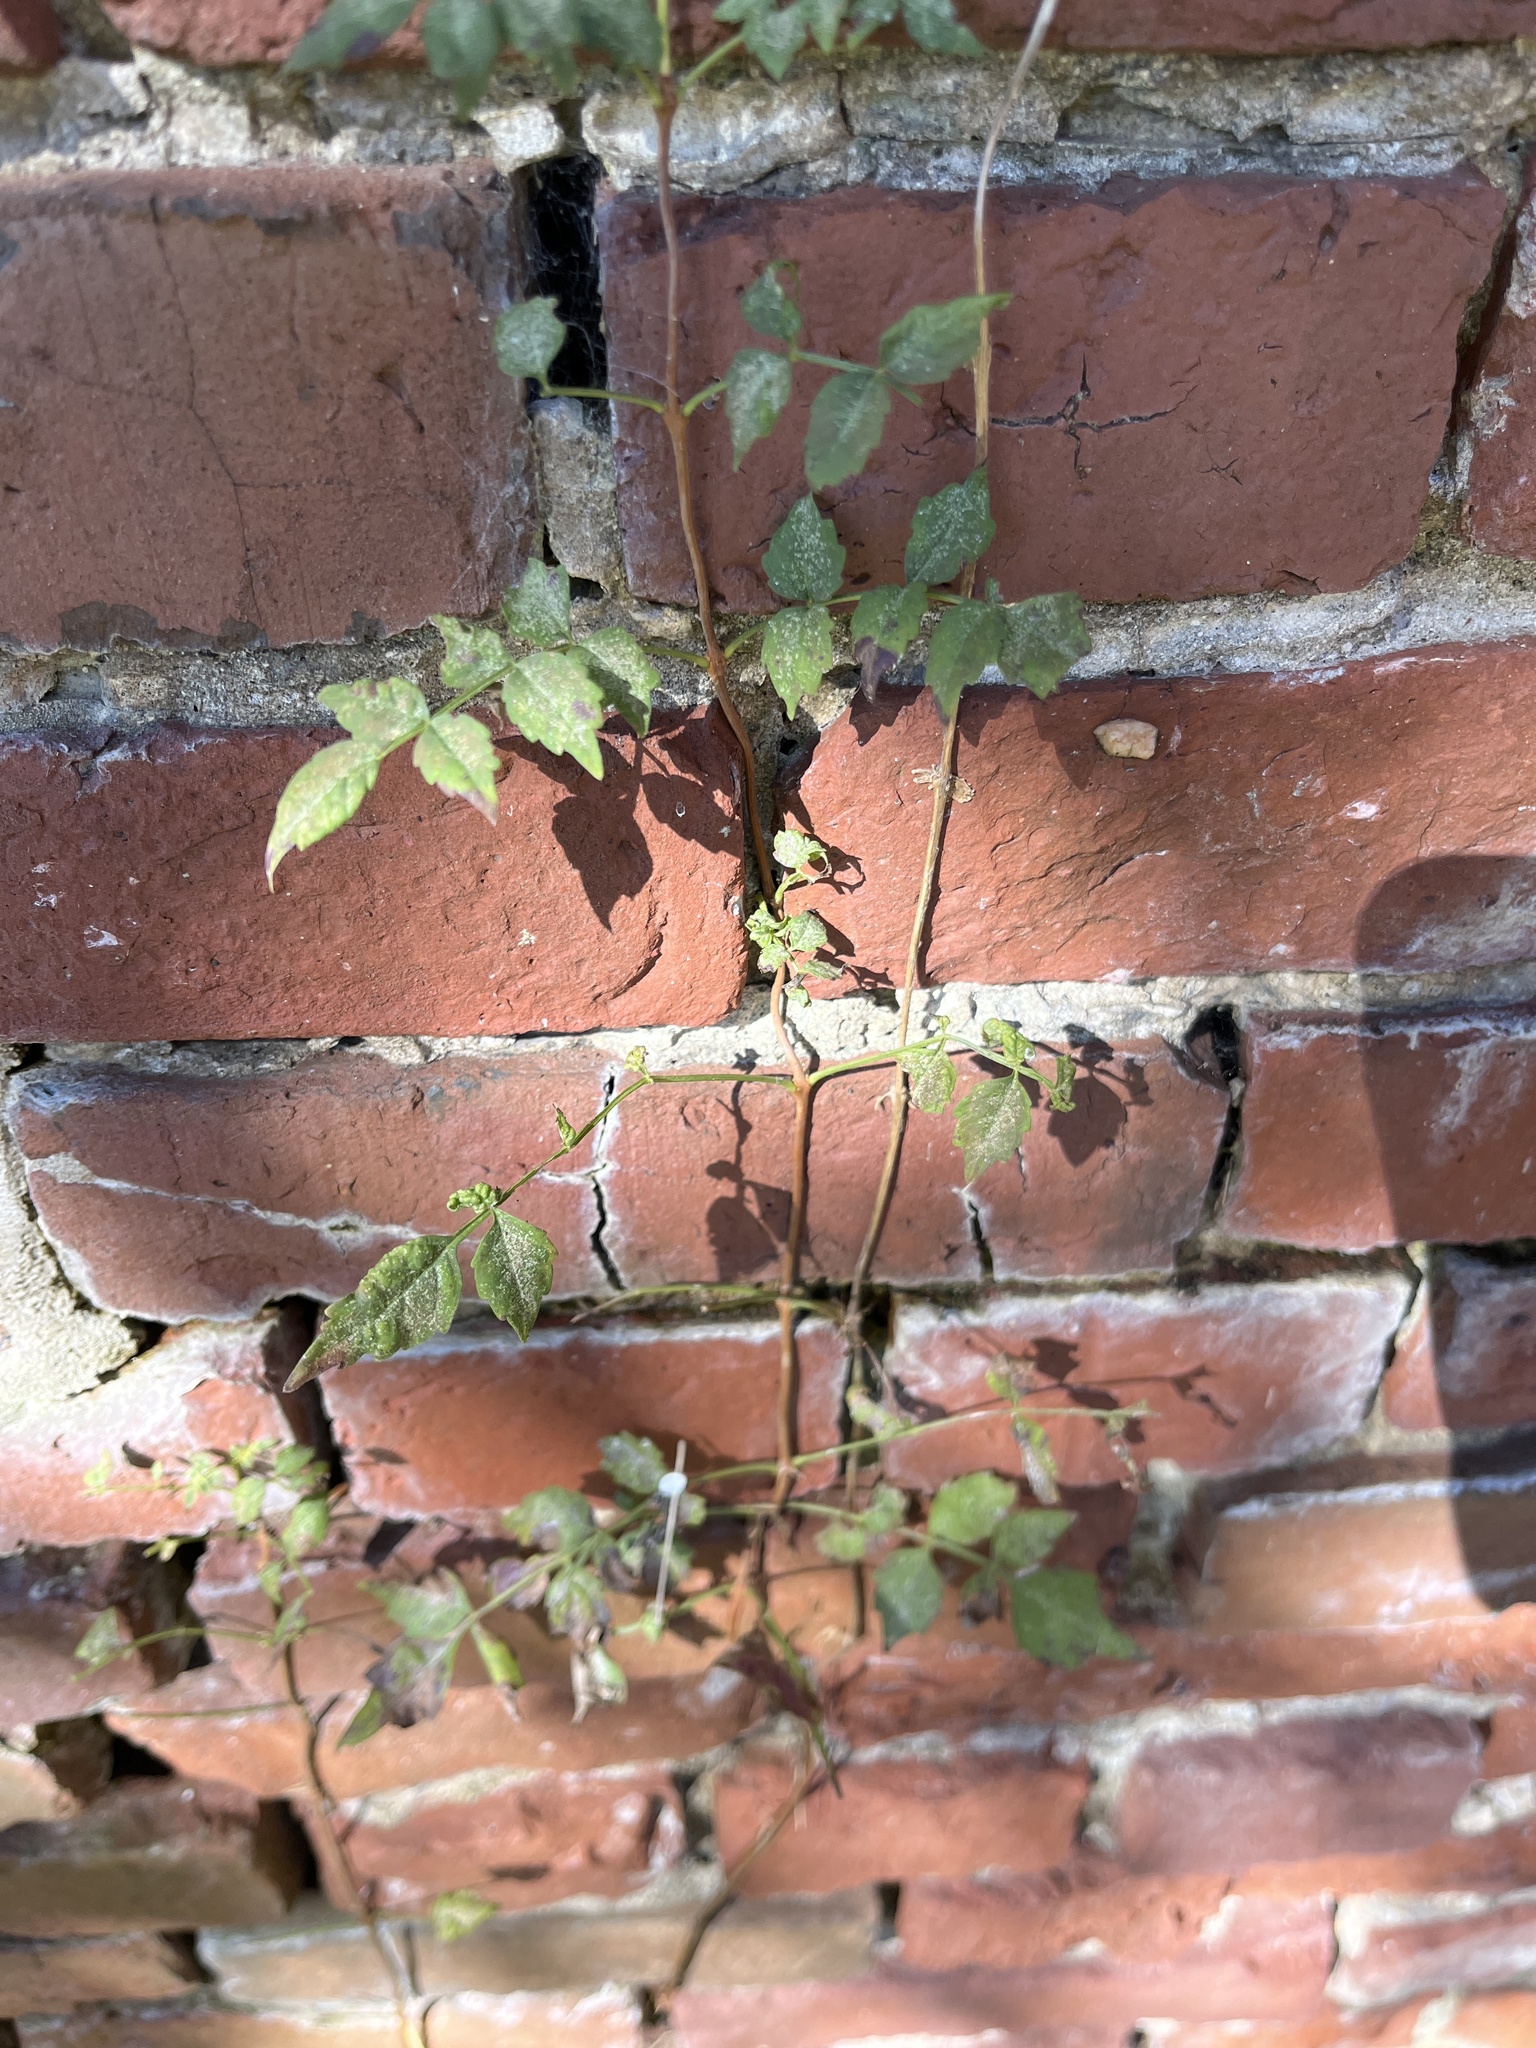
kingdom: Plantae
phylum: Tracheophyta
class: Magnoliopsida
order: Lamiales
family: Bignoniaceae
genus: Campsis
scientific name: Campsis radicans
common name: Trumpet-creeper
